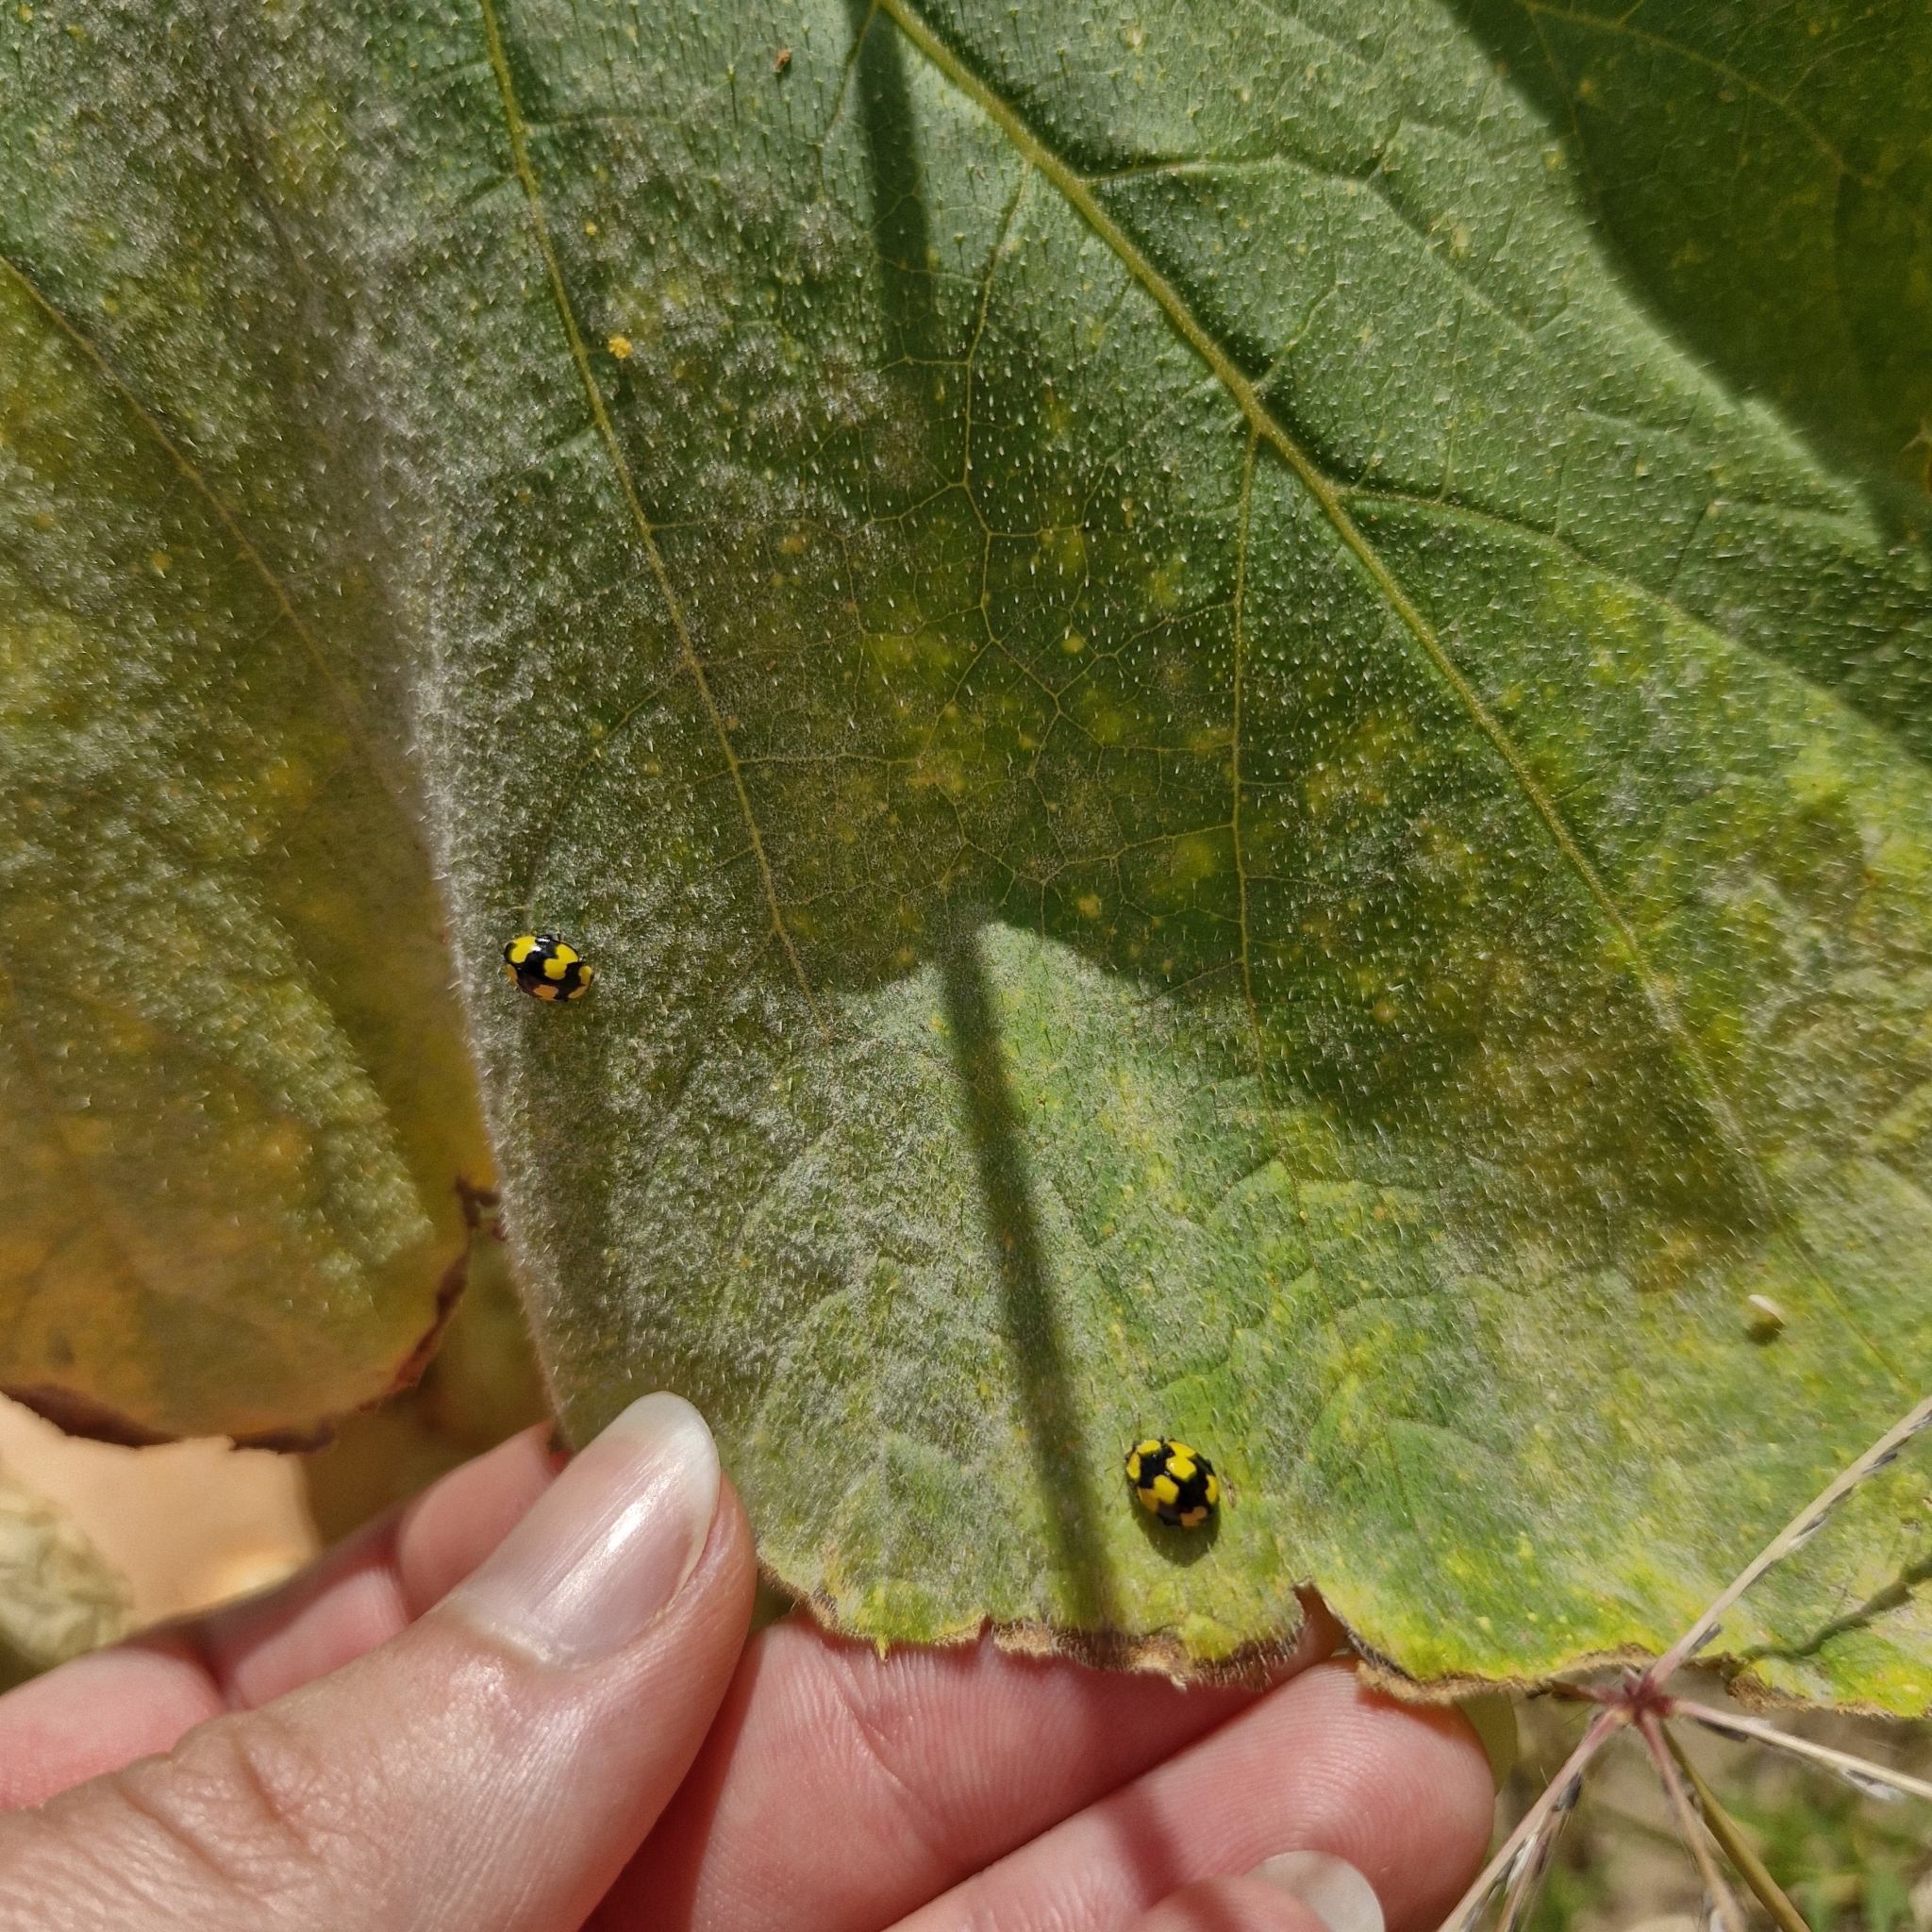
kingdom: Animalia
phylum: Arthropoda
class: Insecta
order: Coleoptera
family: Coccinellidae
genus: Illeis
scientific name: Illeis galbula
